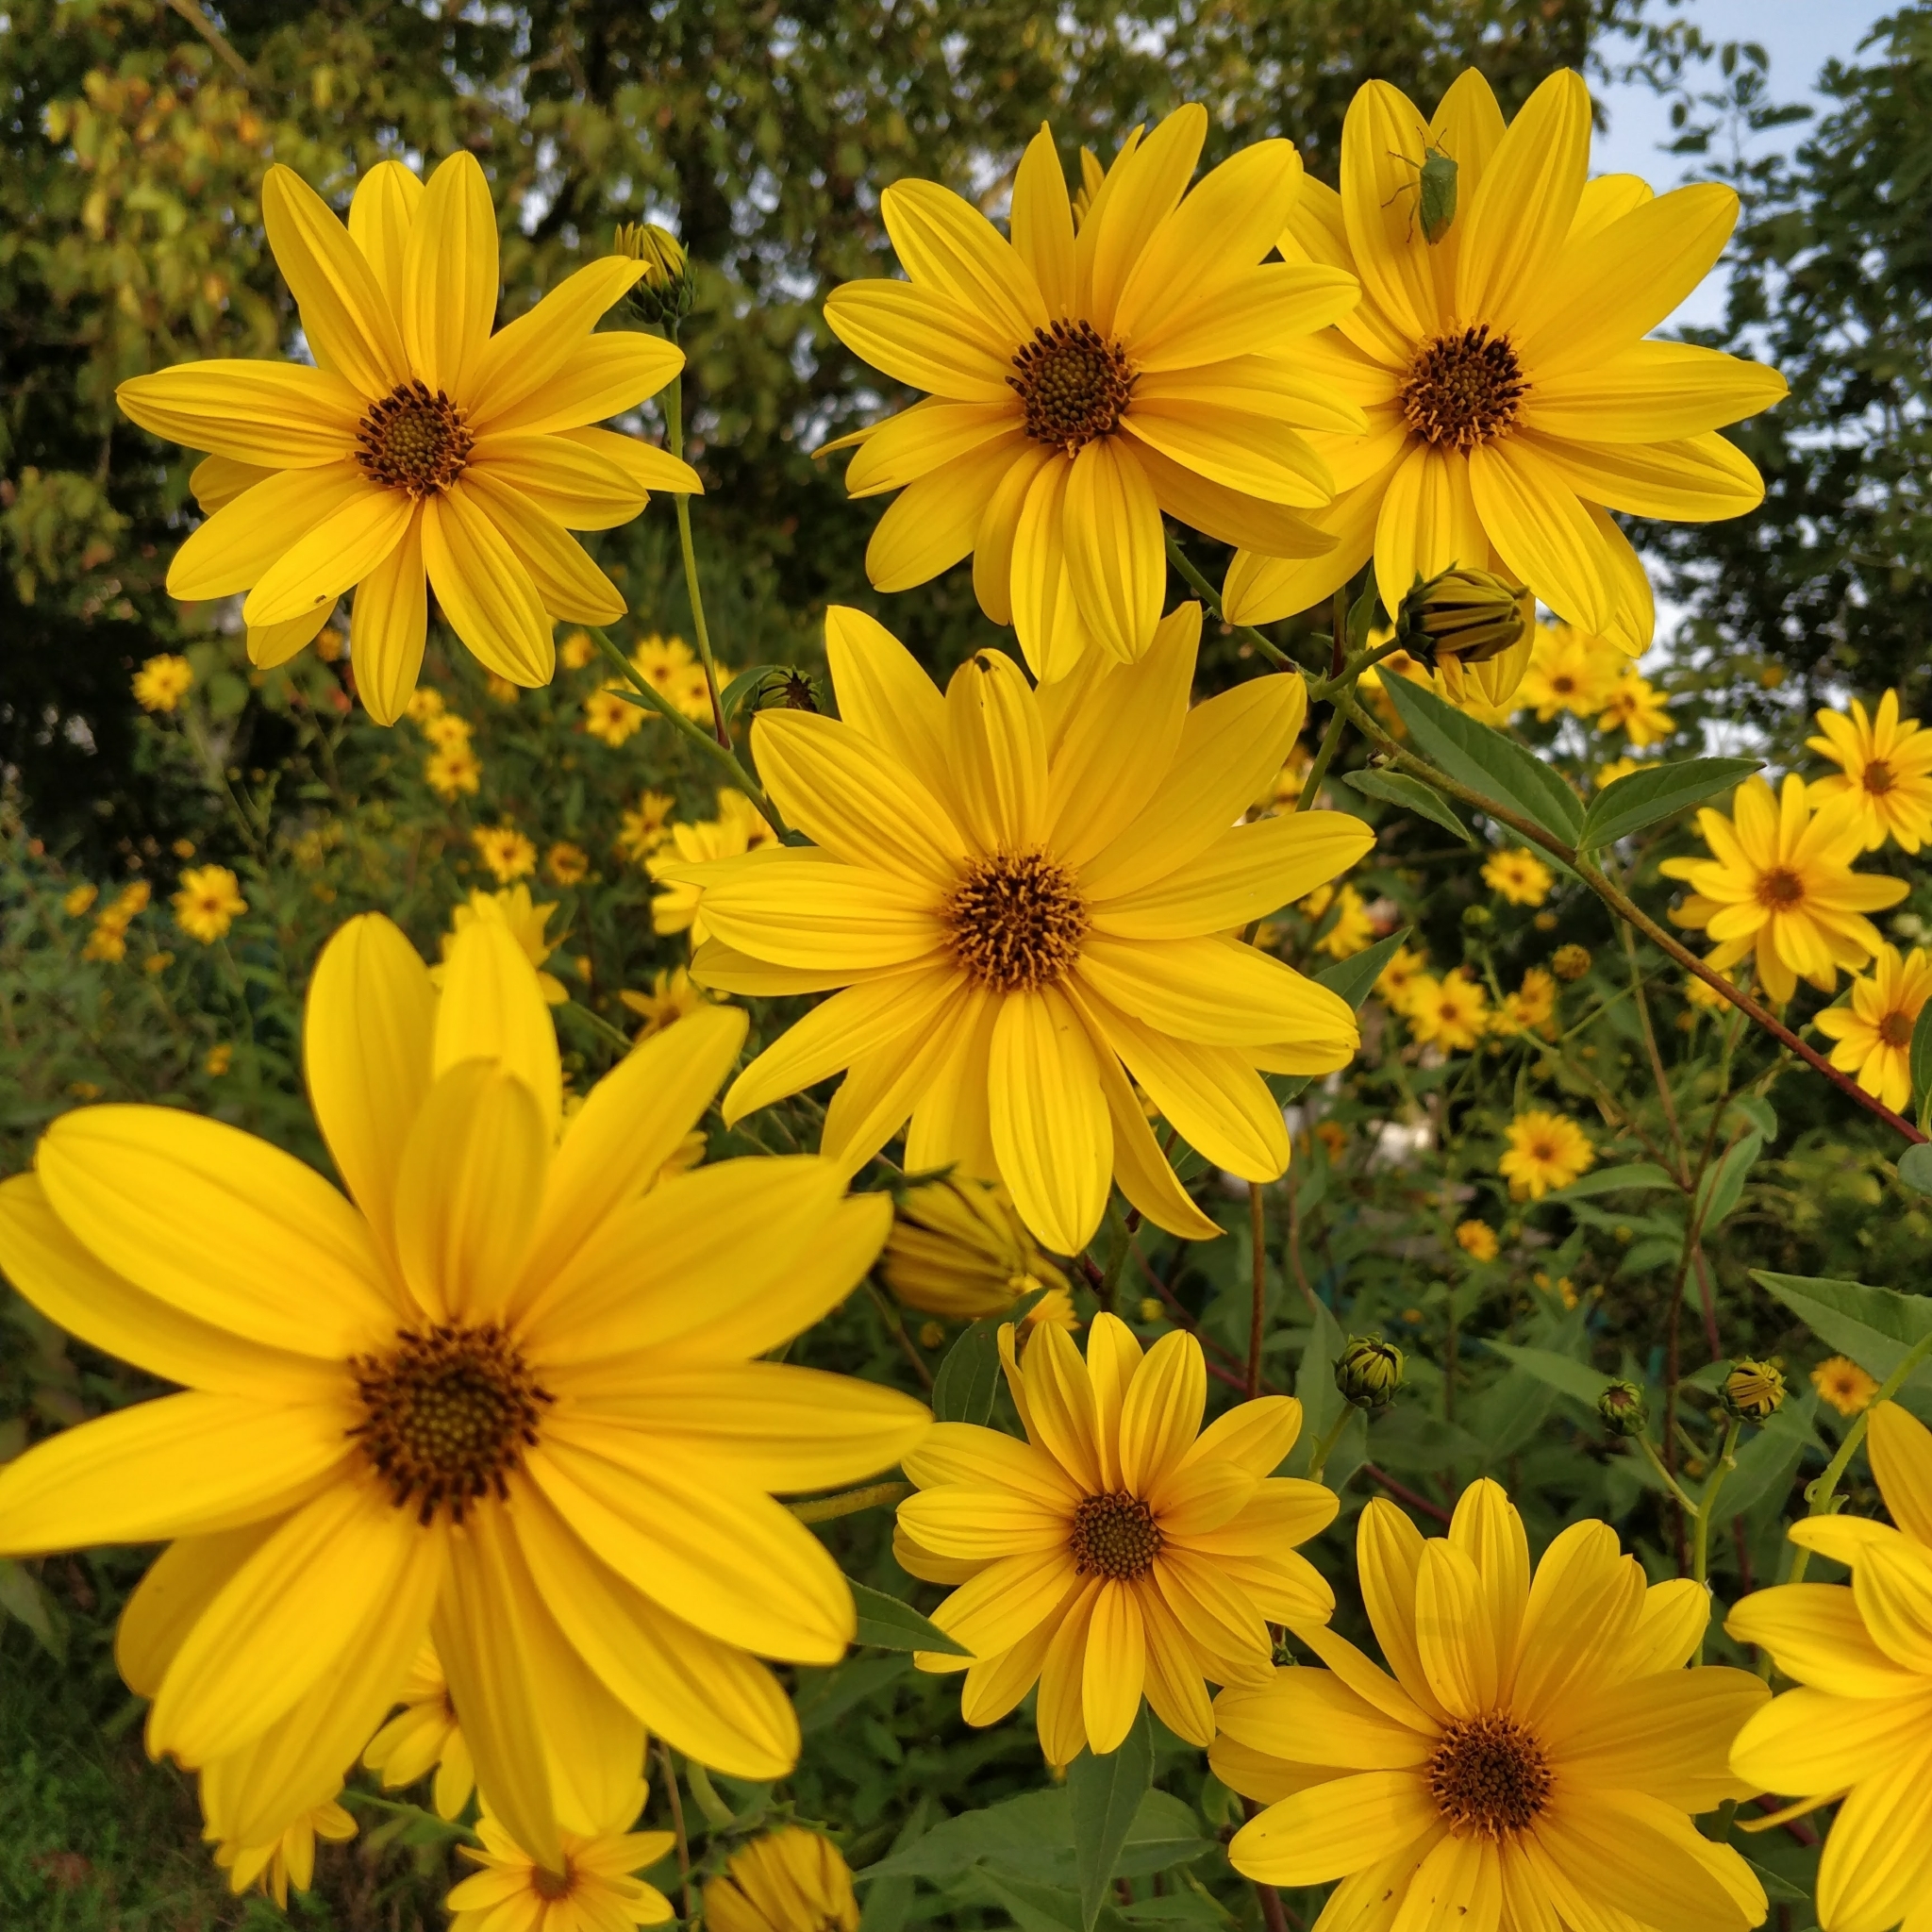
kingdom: Plantae
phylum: Tracheophyta
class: Magnoliopsida
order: Asterales
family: Asteraceae
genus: Helianthus
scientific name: Helianthus tuberosus
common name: Jerusalem artichoke
